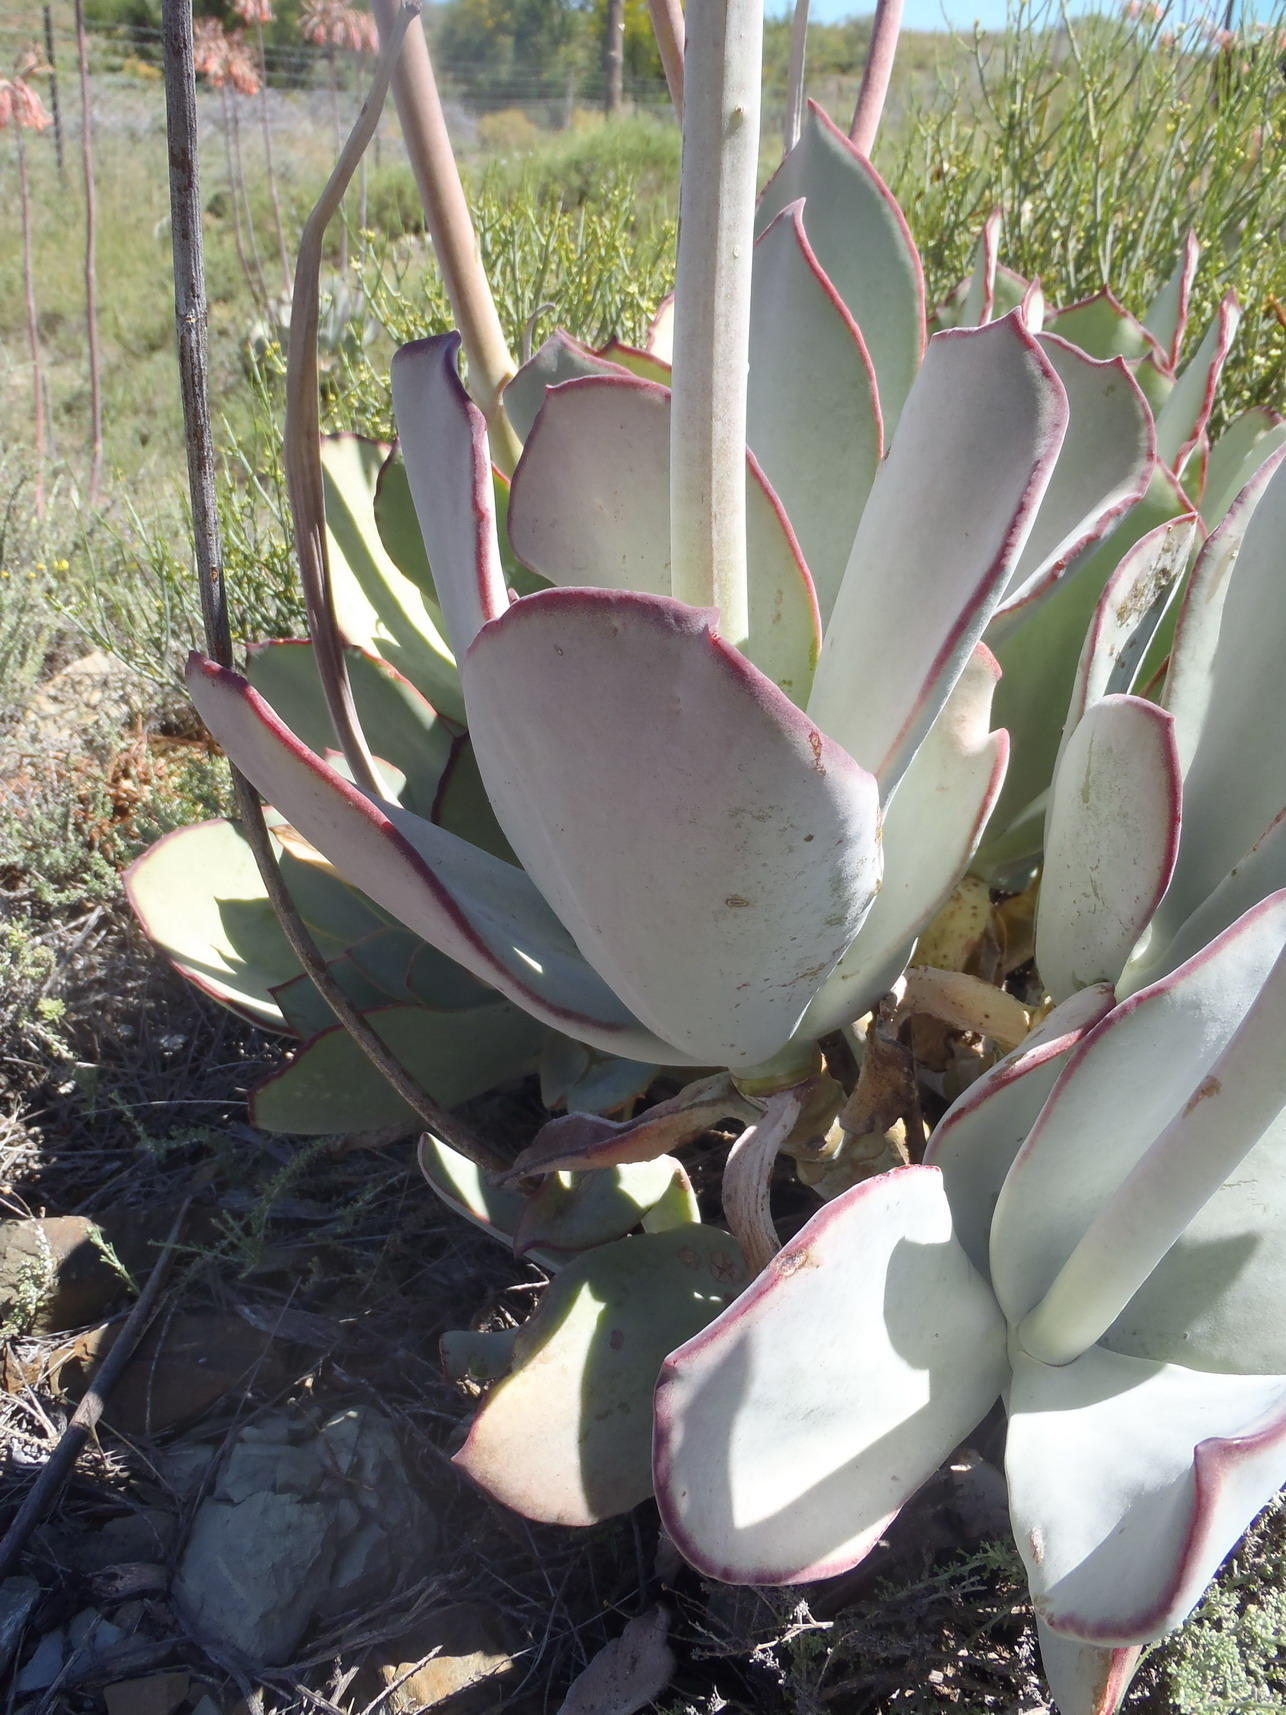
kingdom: Plantae
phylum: Tracheophyta
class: Magnoliopsida
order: Saxifragales
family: Crassulaceae
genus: Cotyledon
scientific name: Cotyledon orbiculata
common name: Pig's ear
